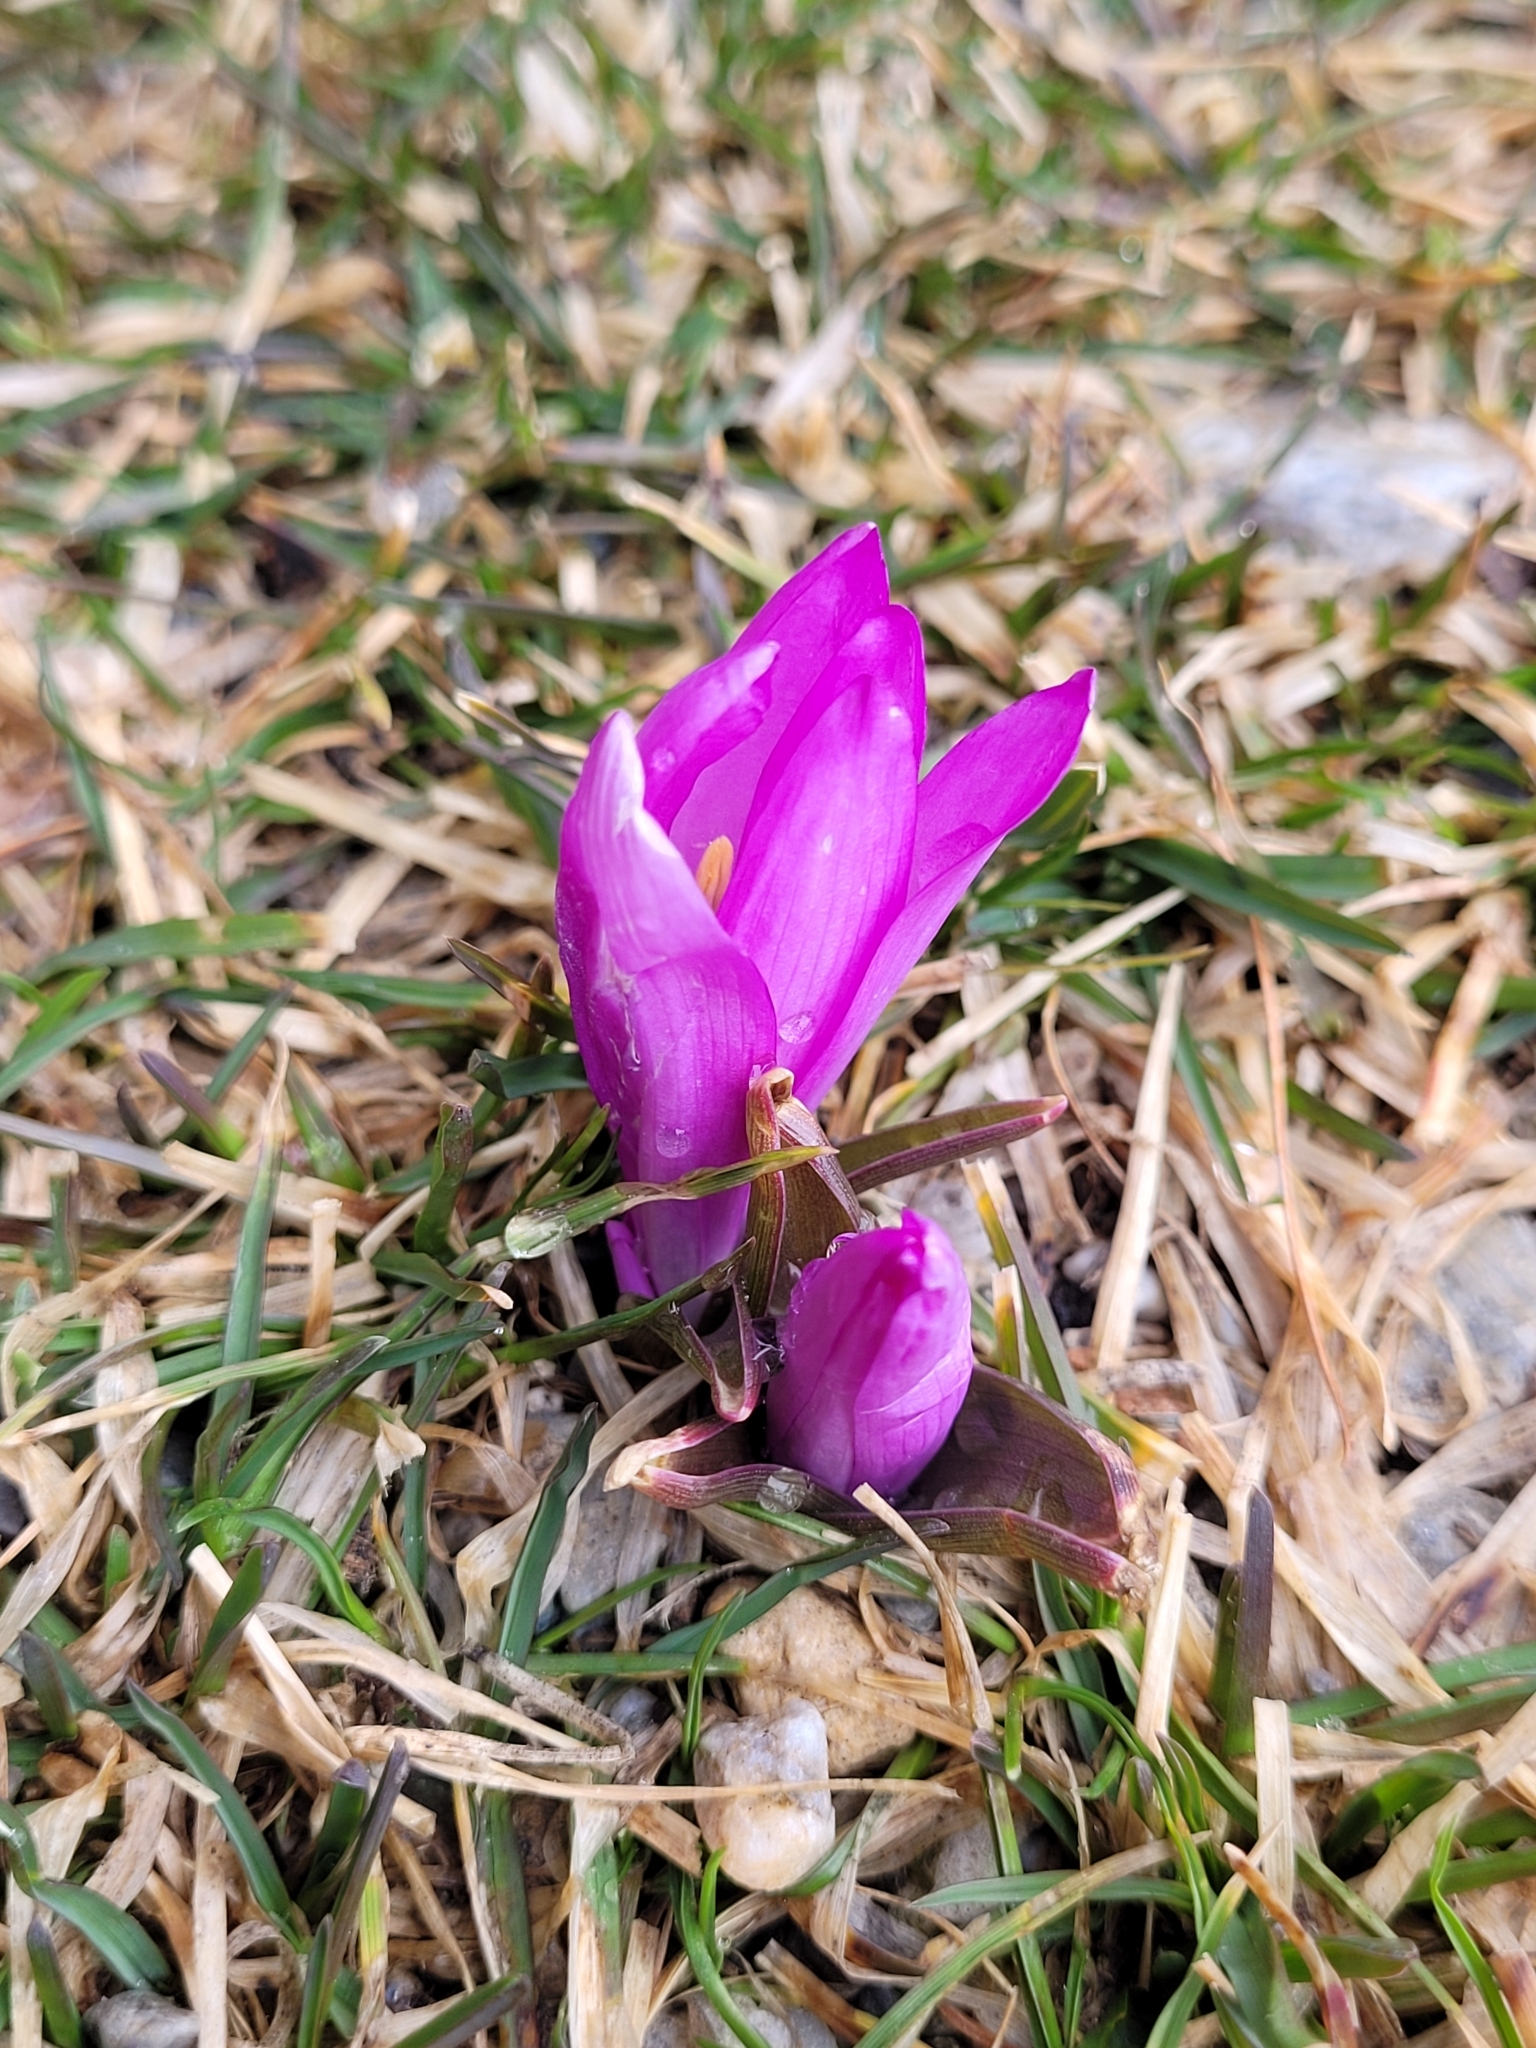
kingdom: Plantae
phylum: Tracheophyta
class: Liliopsida
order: Liliales
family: Colchicaceae
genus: Colchicum
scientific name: Colchicum bulbocodium
